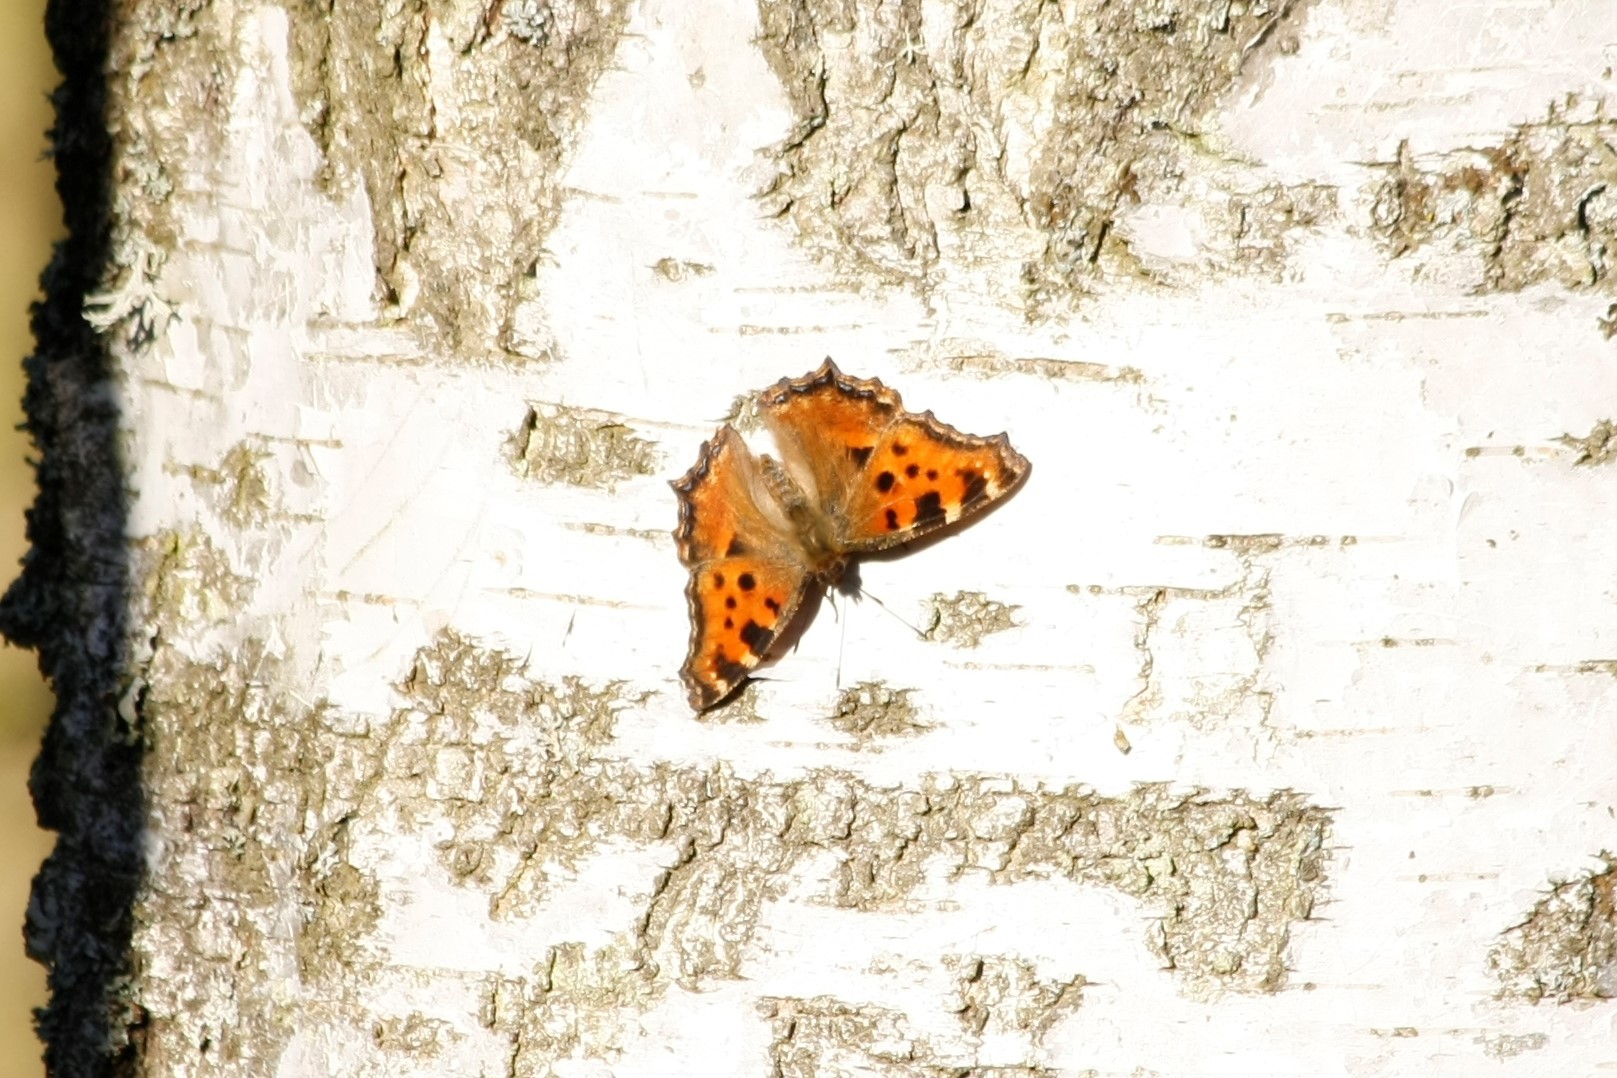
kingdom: Animalia
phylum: Arthropoda
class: Insecta
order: Lepidoptera
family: Nymphalidae
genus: Nymphalis
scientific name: Nymphalis polychloros
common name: Large tortoiseshell
